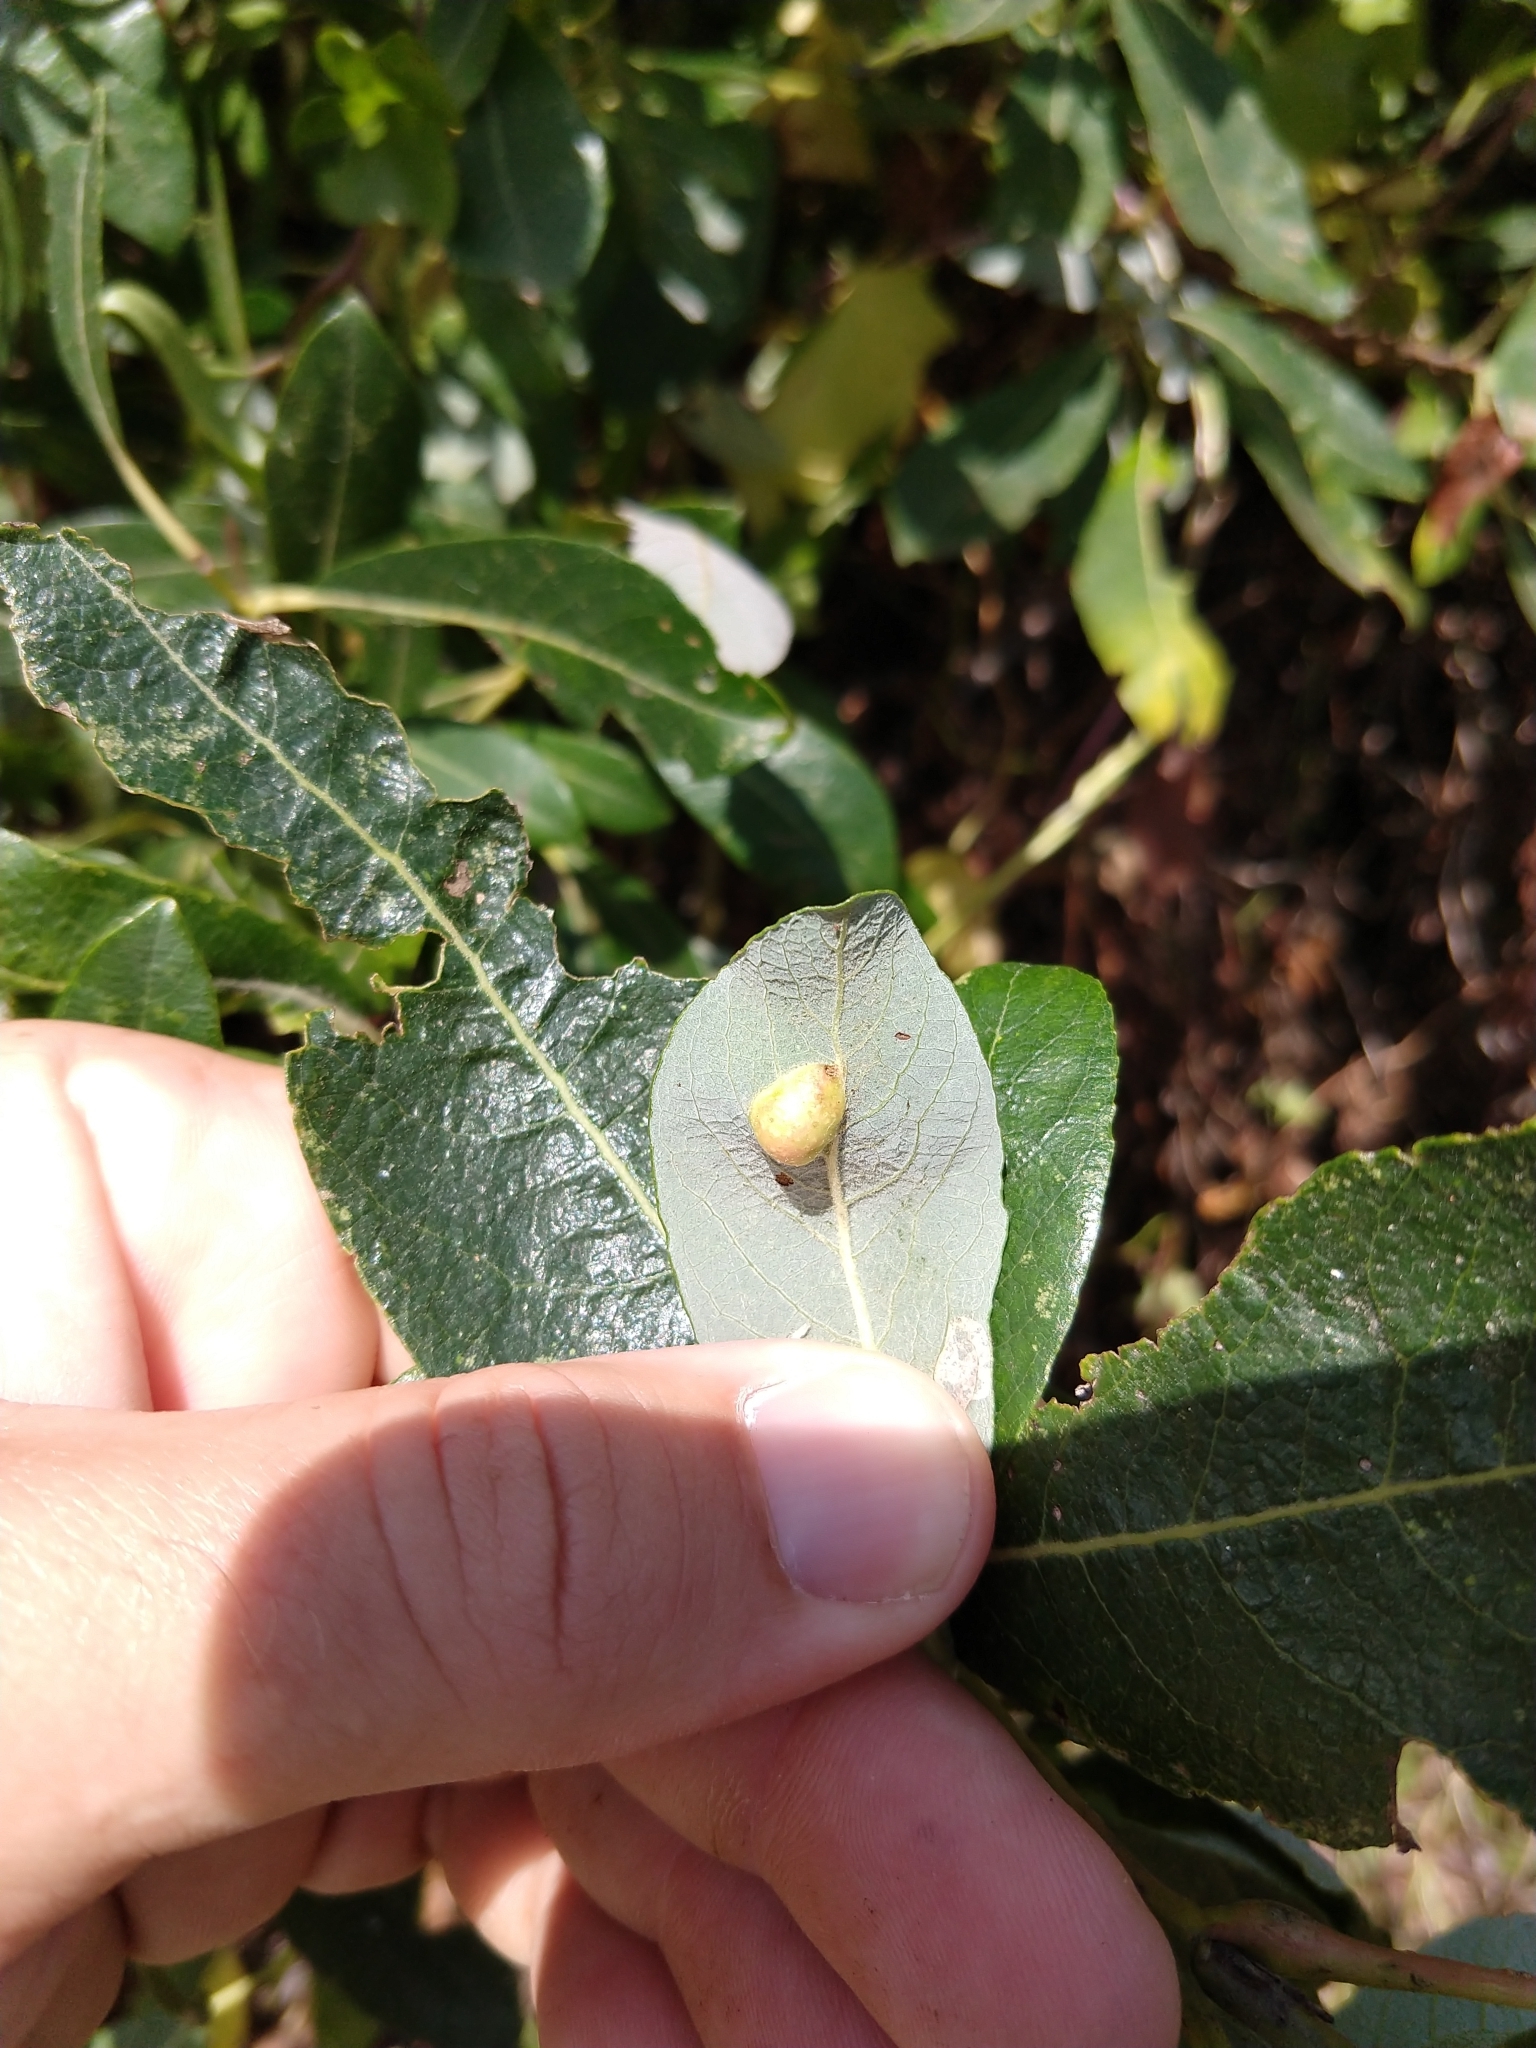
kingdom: Animalia
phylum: Arthropoda
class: Insecta
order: Hymenoptera
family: Tenthredinidae
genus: Euura
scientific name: Euura
